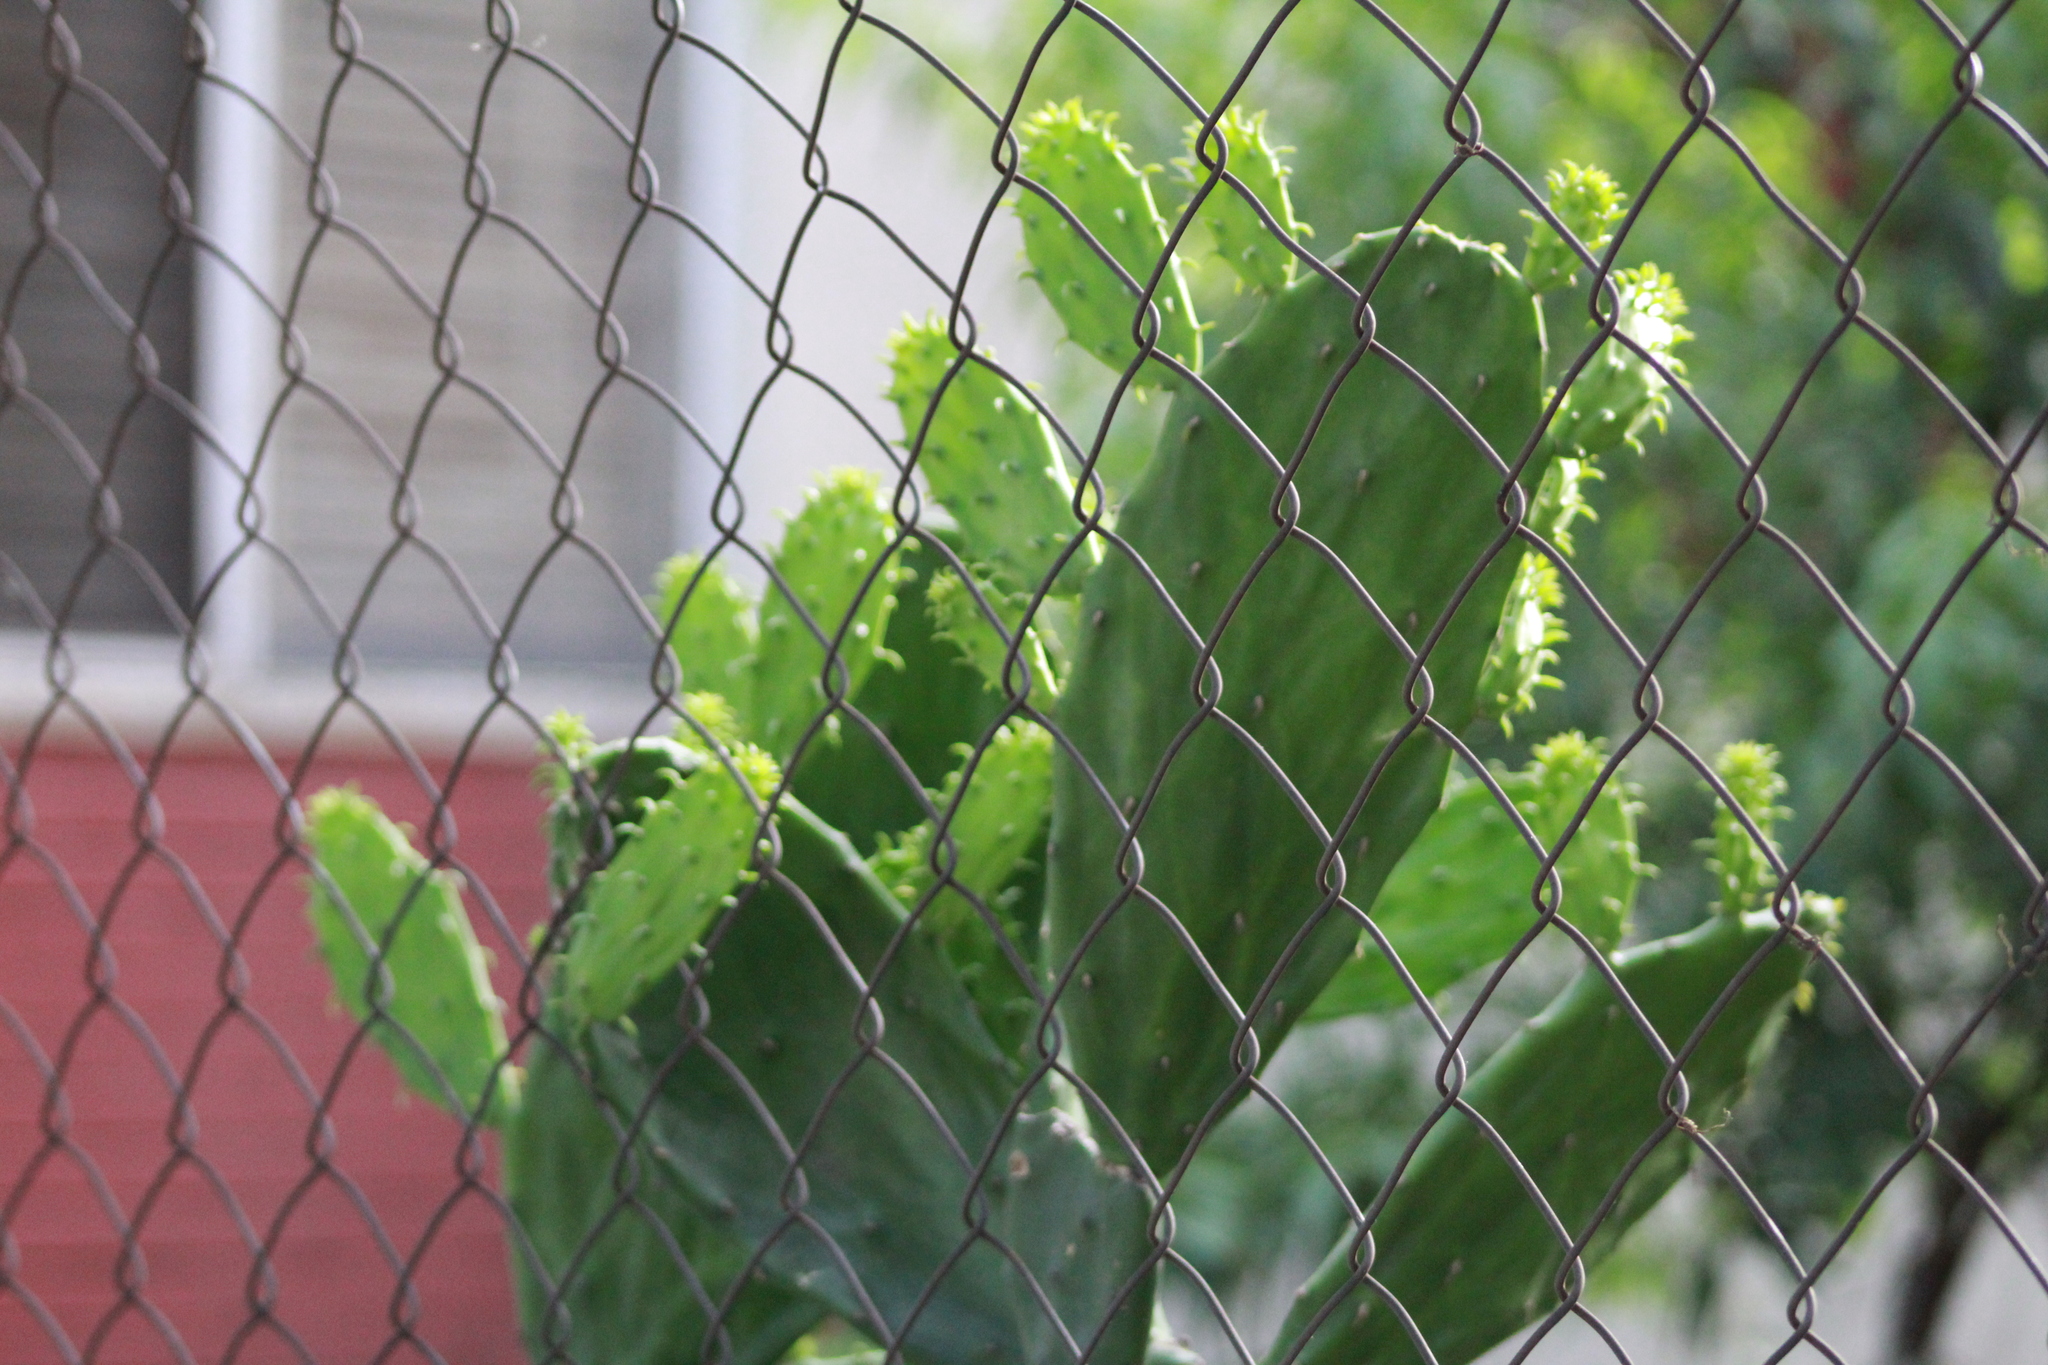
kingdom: Plantae
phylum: Tracheophyta
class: Magnoliopsida
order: Caryophyllales
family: Cactaceae
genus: Opuntia
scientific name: Opuntia cochenillifera
